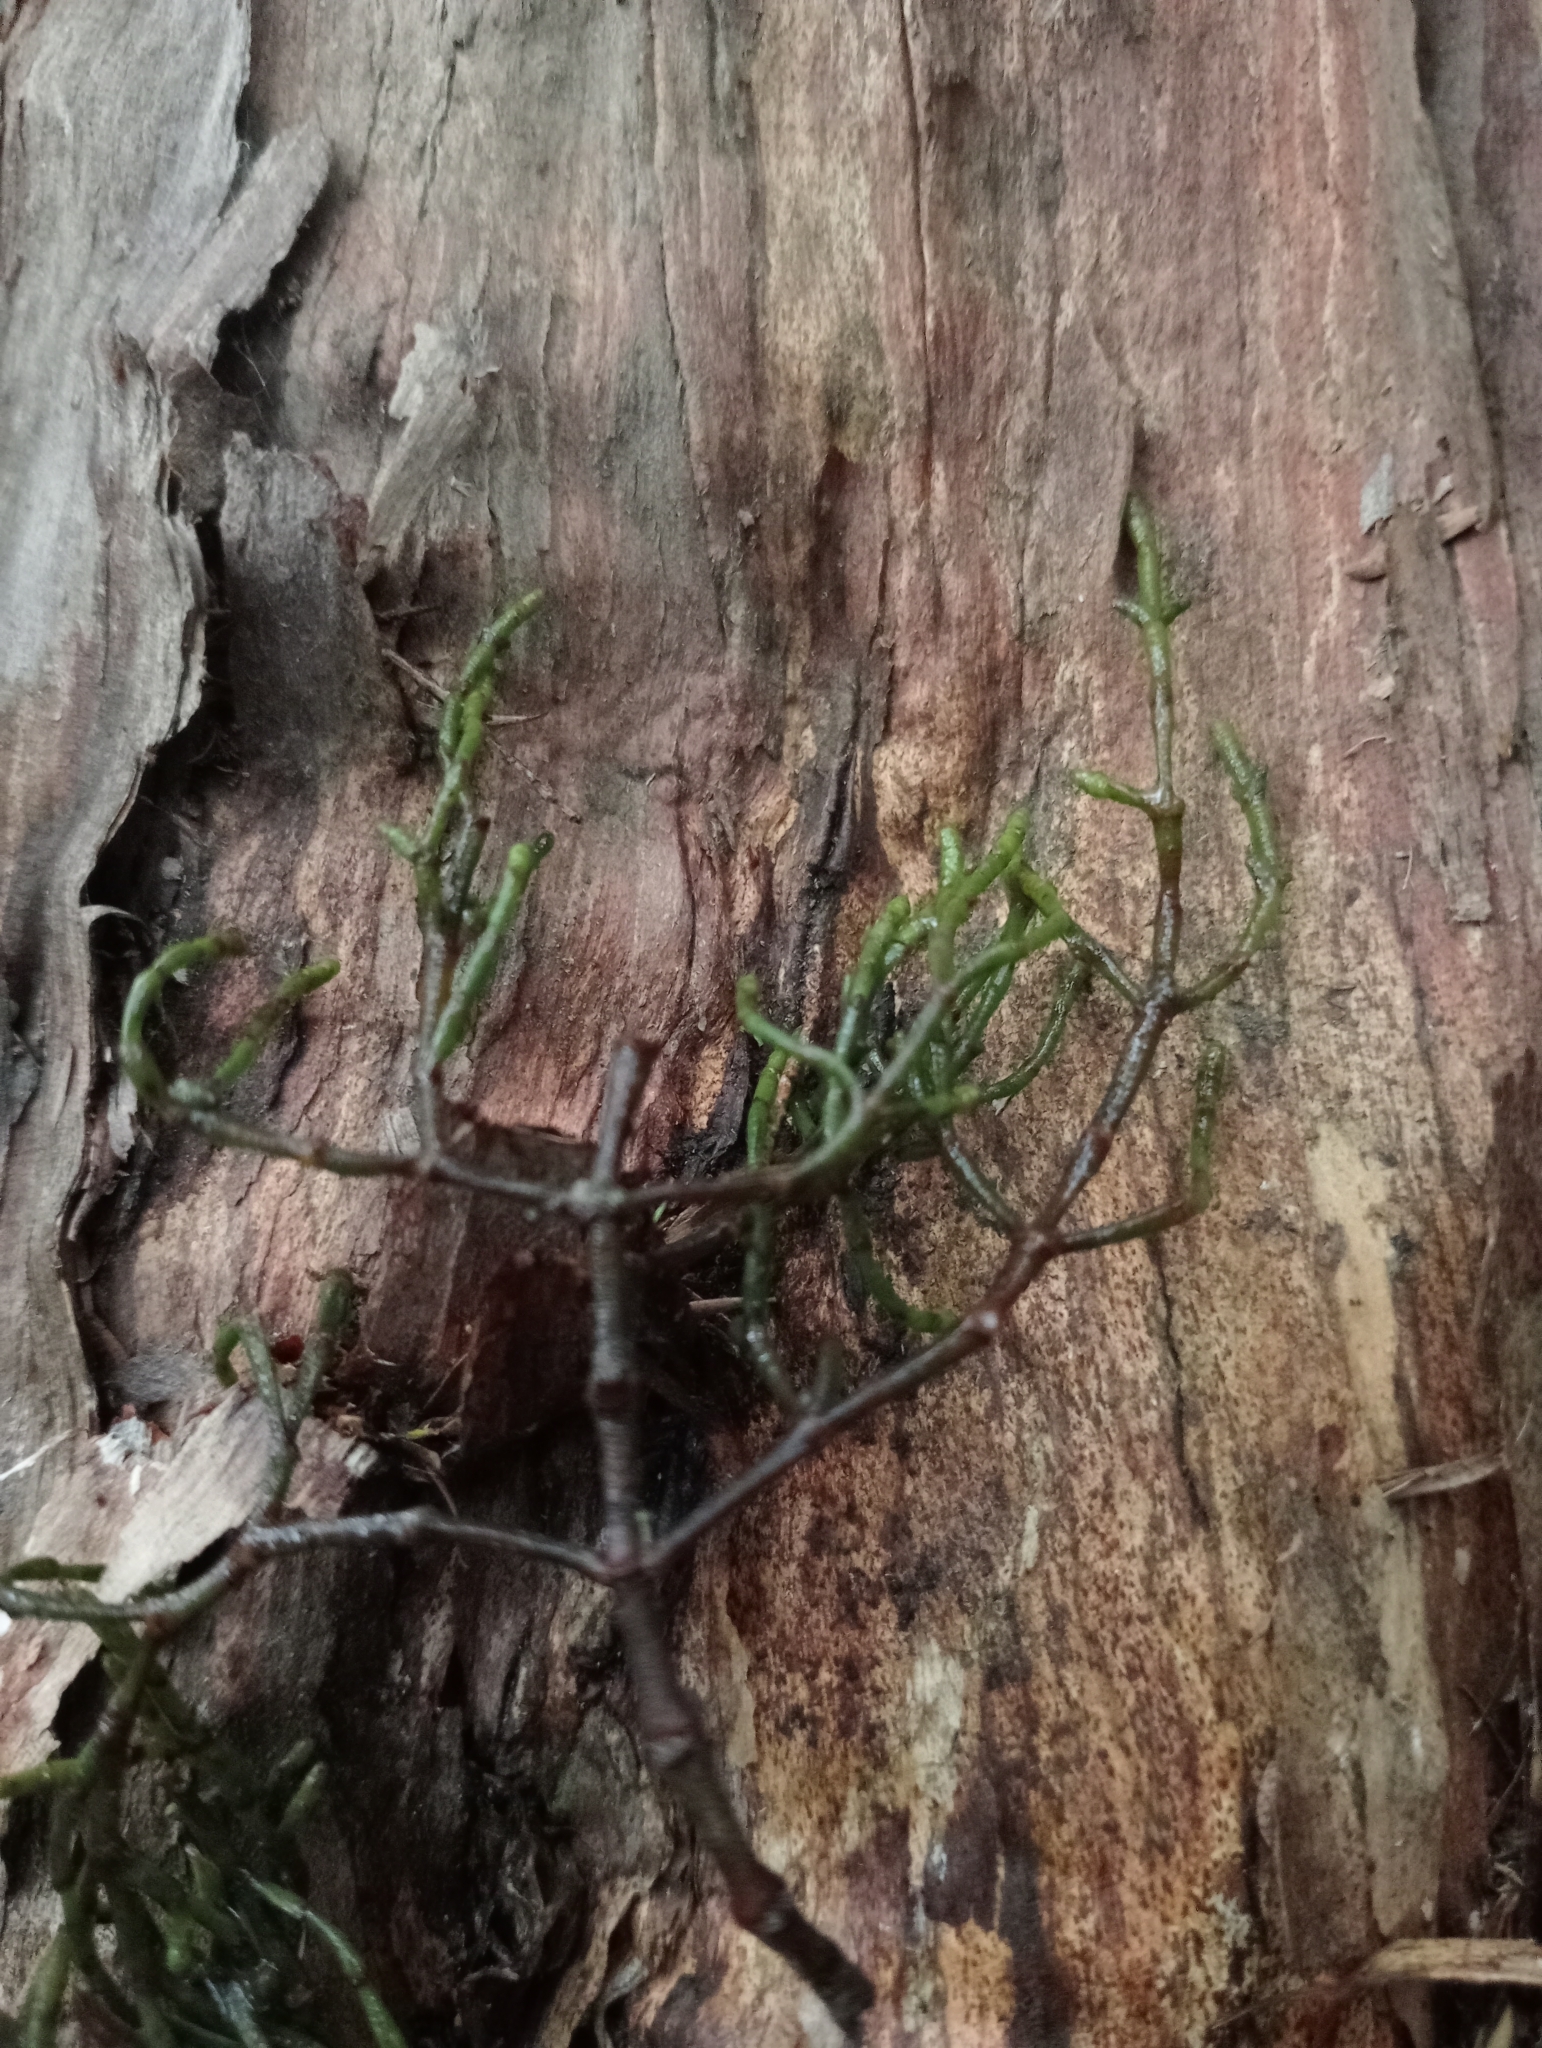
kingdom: Plantae
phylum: Tracheophyta
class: Magnoliopsida
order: Santalales
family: Viscaceae
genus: Korthalsella
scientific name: Korthalsella salicornioides
